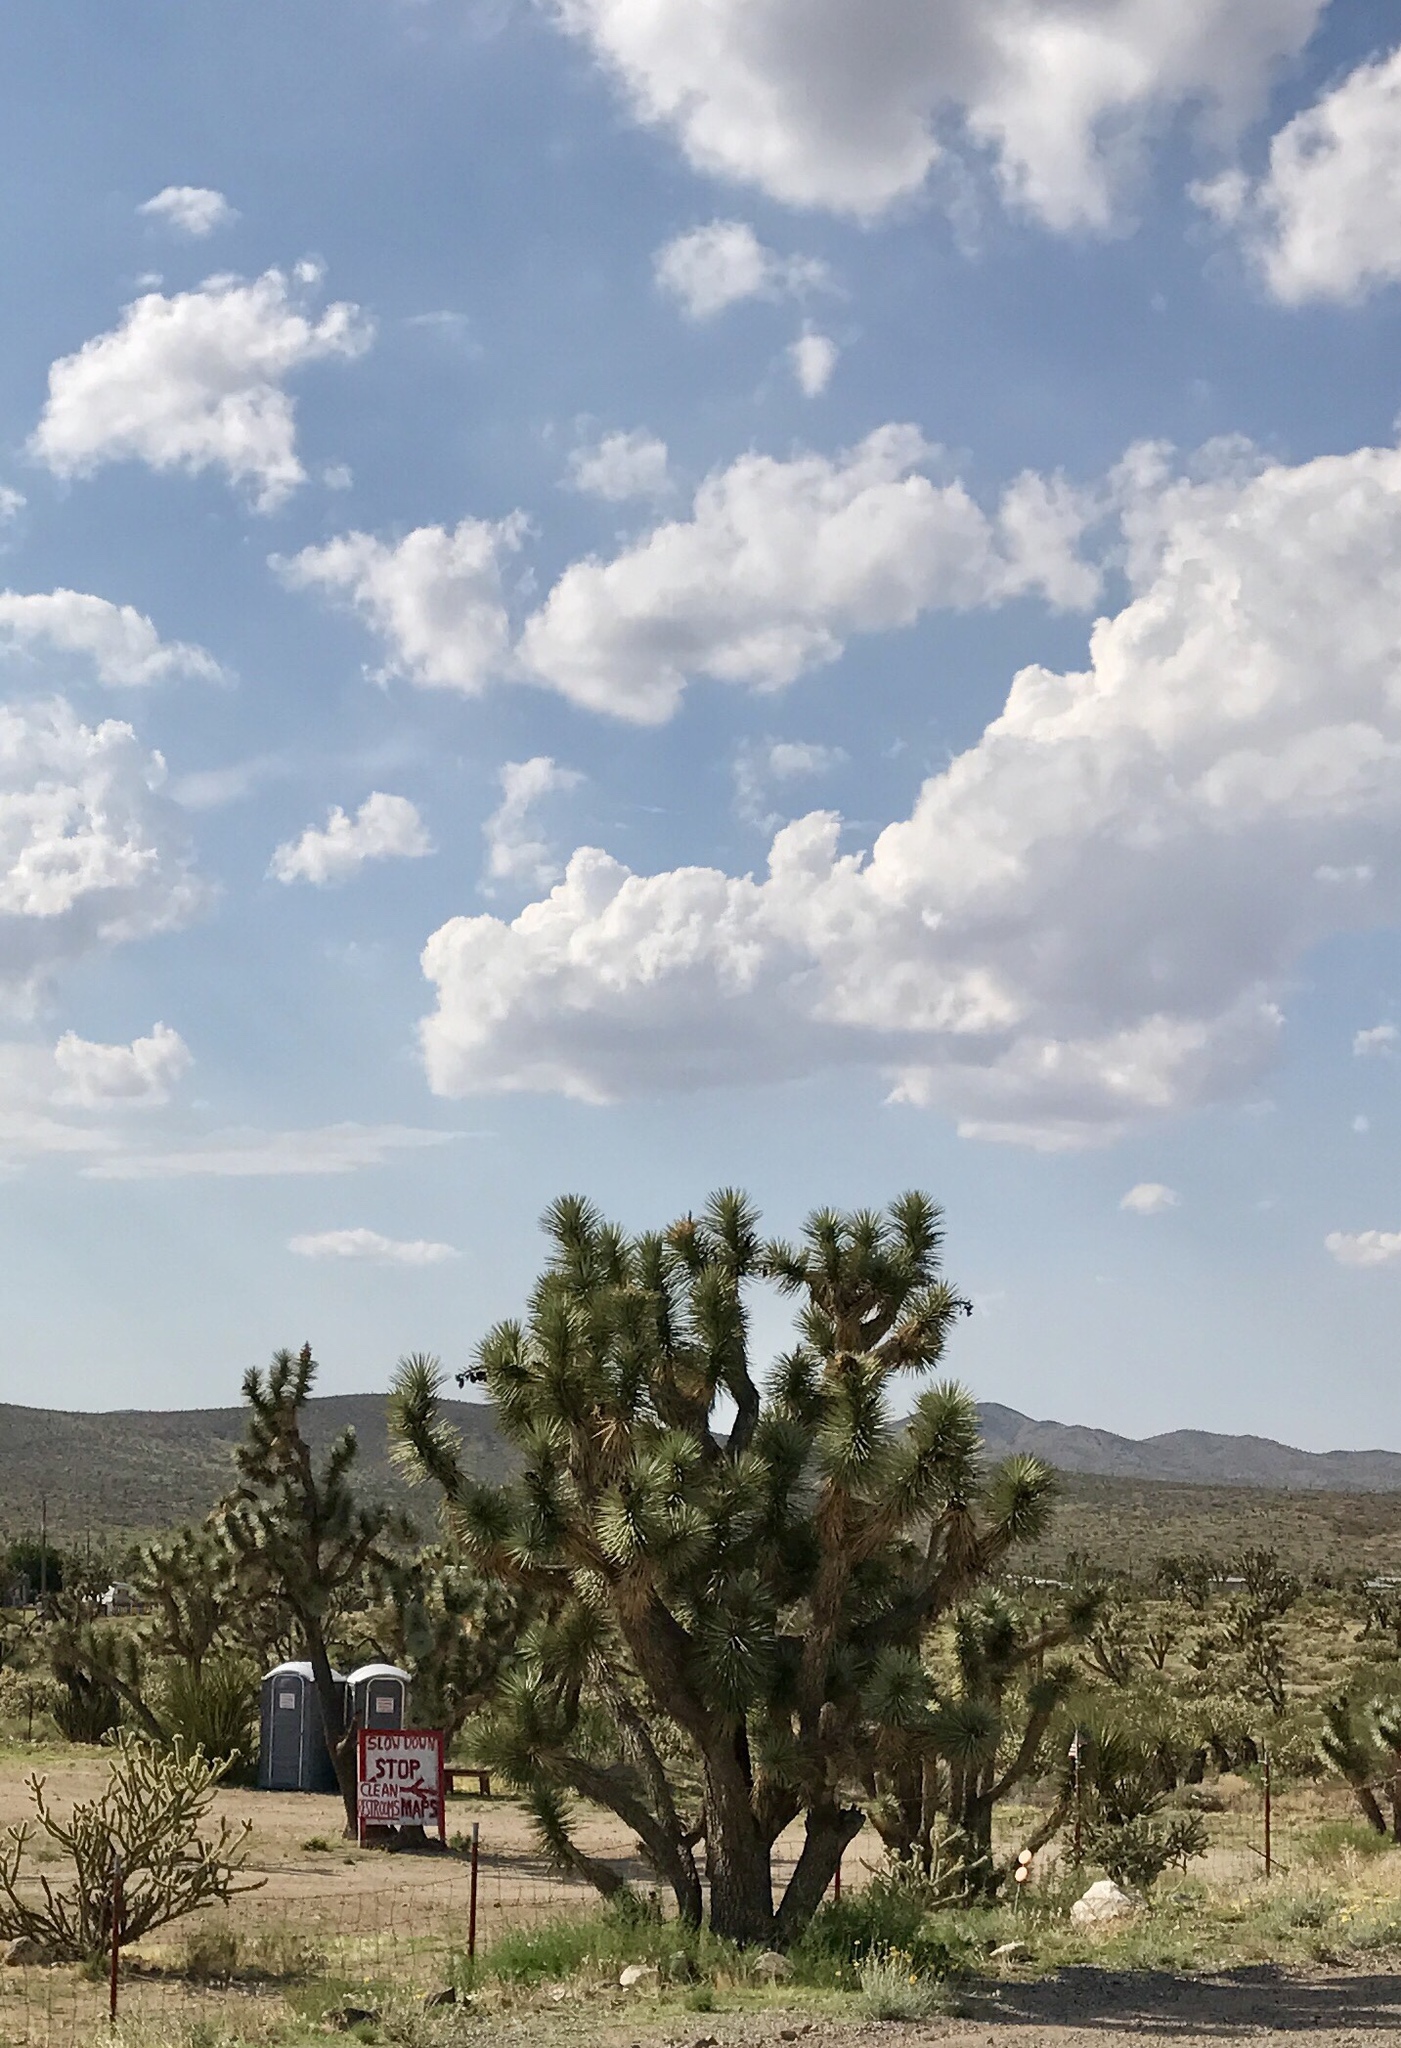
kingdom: Plantae
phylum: Tracheophyta
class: Liliopsida
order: Asparagales
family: Asparagaceae
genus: Yucca
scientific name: Yucca brevifolia
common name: Joshua tree
